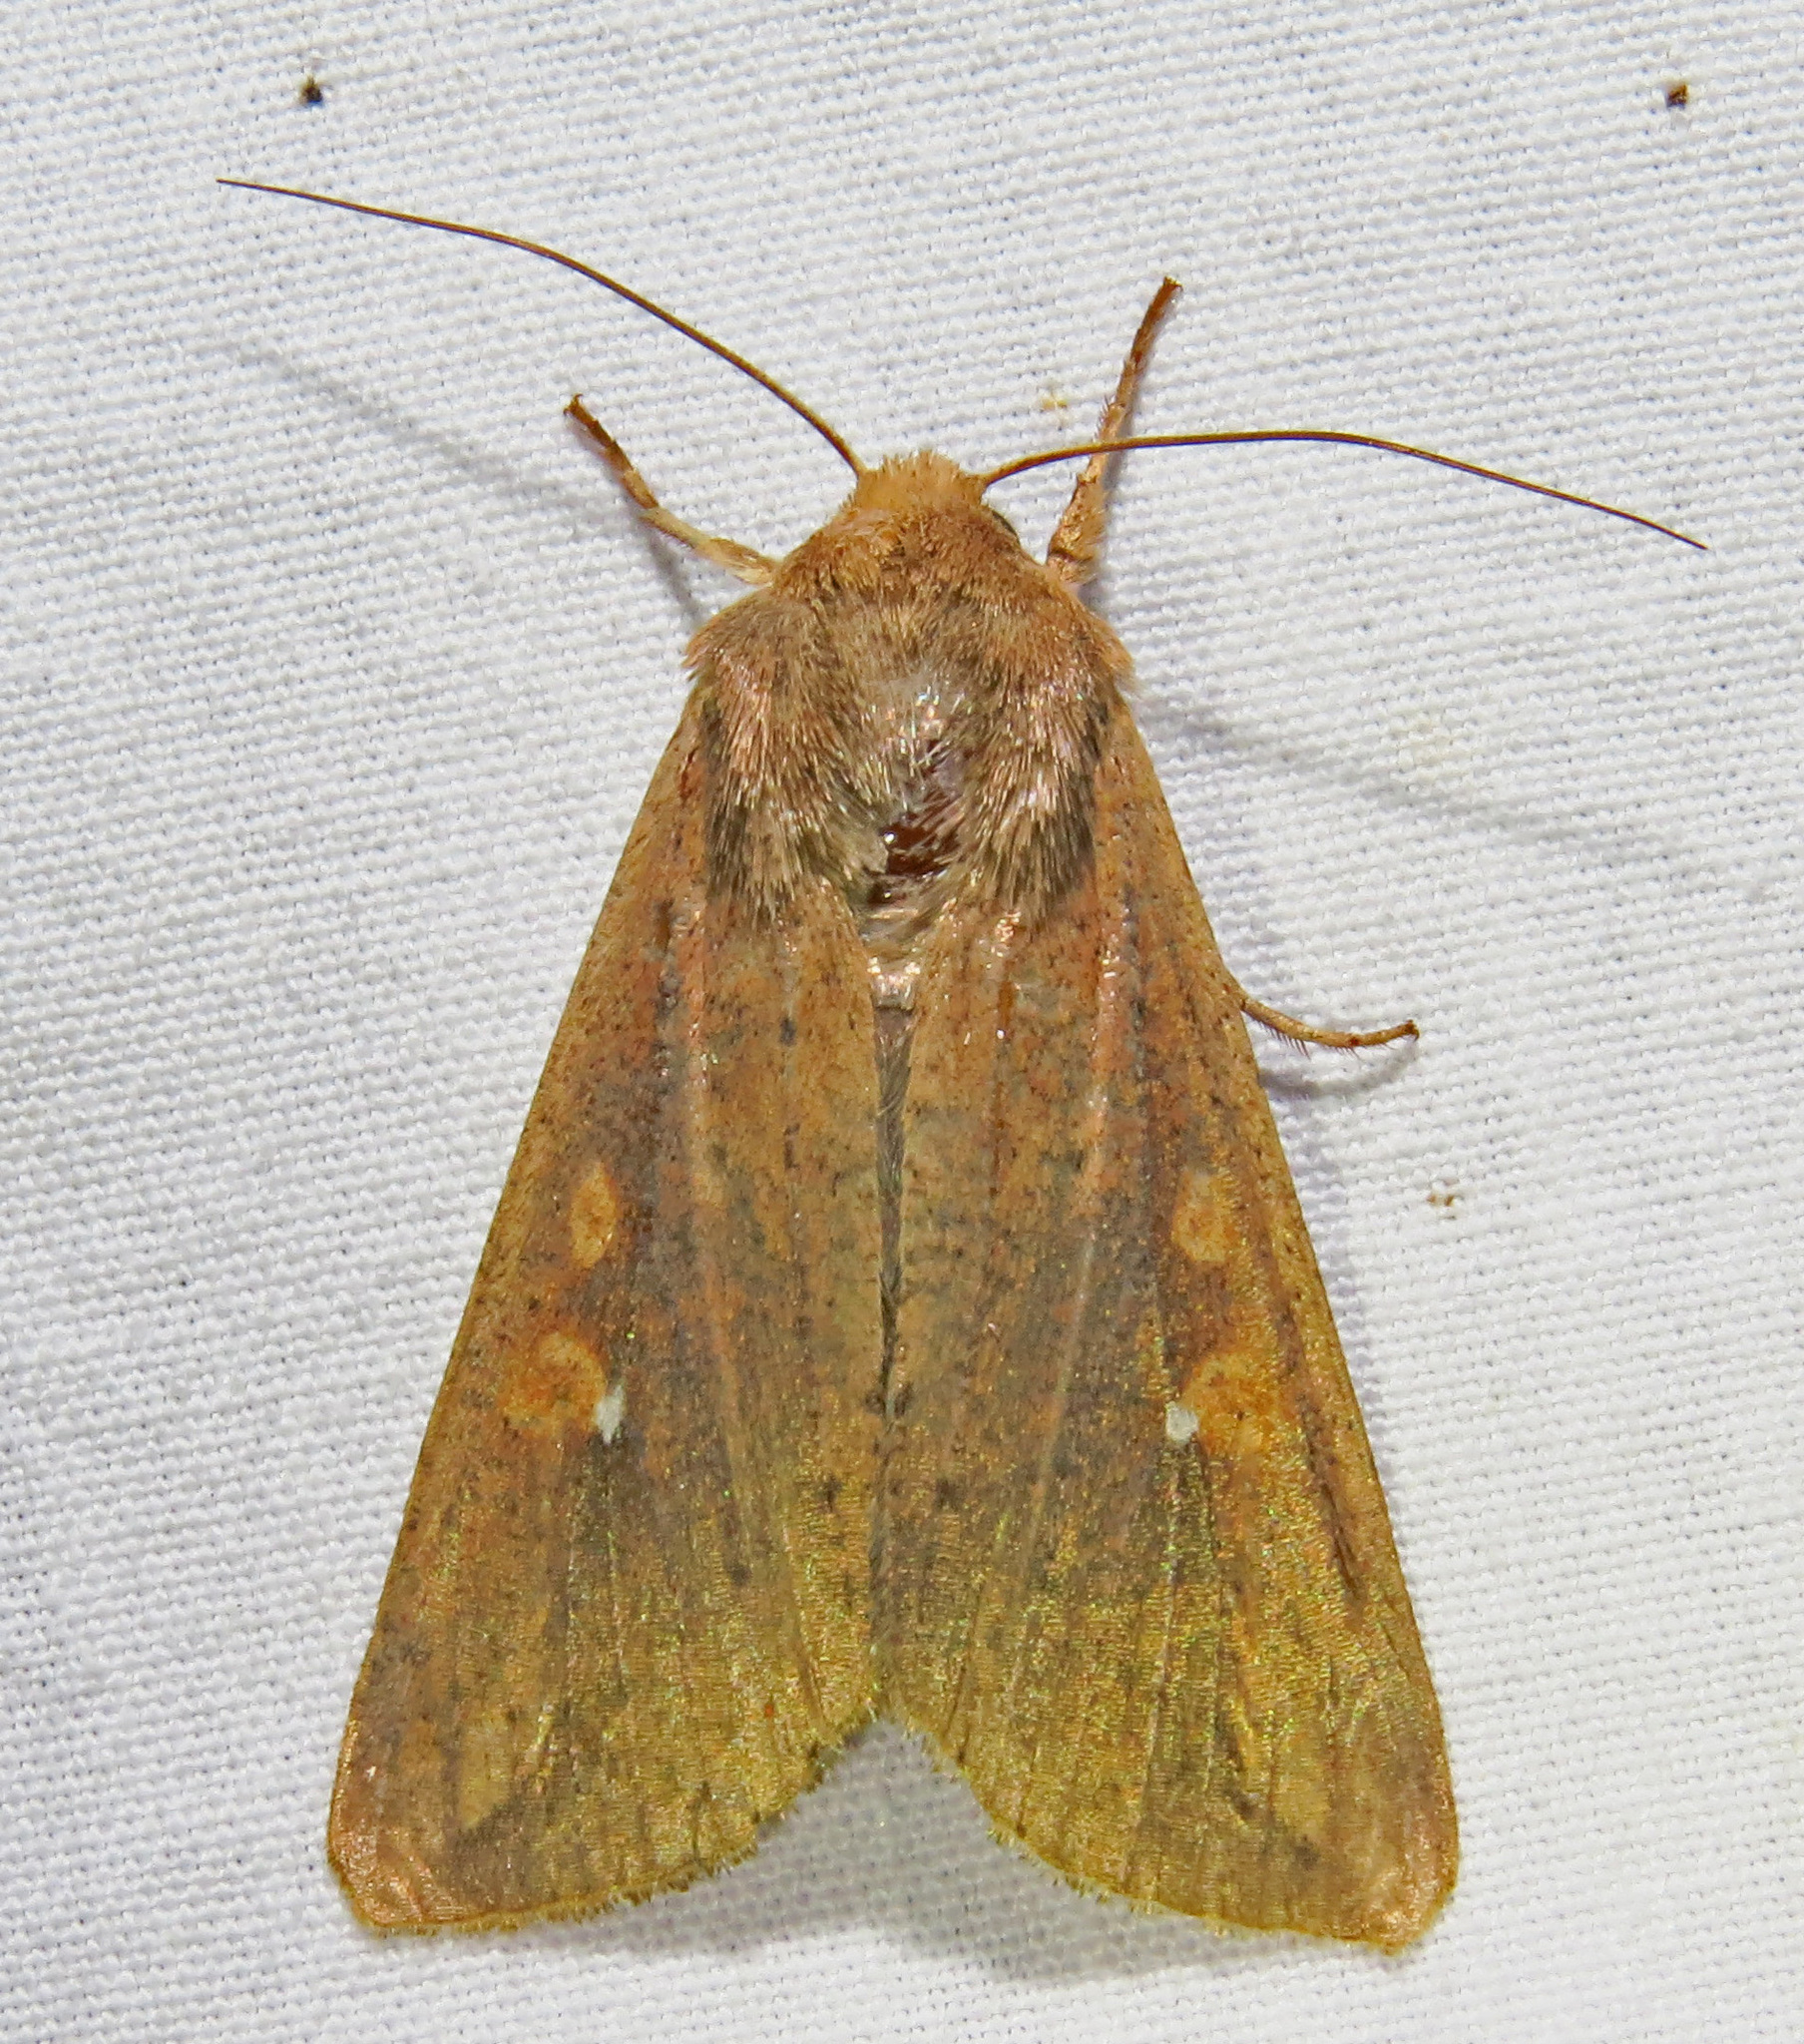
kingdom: Animalia
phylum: Arthropoda
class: Insecta
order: Lepidoptera
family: Noctuidae
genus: Mythimna
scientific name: Mythimna unipuncta
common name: White-speck
